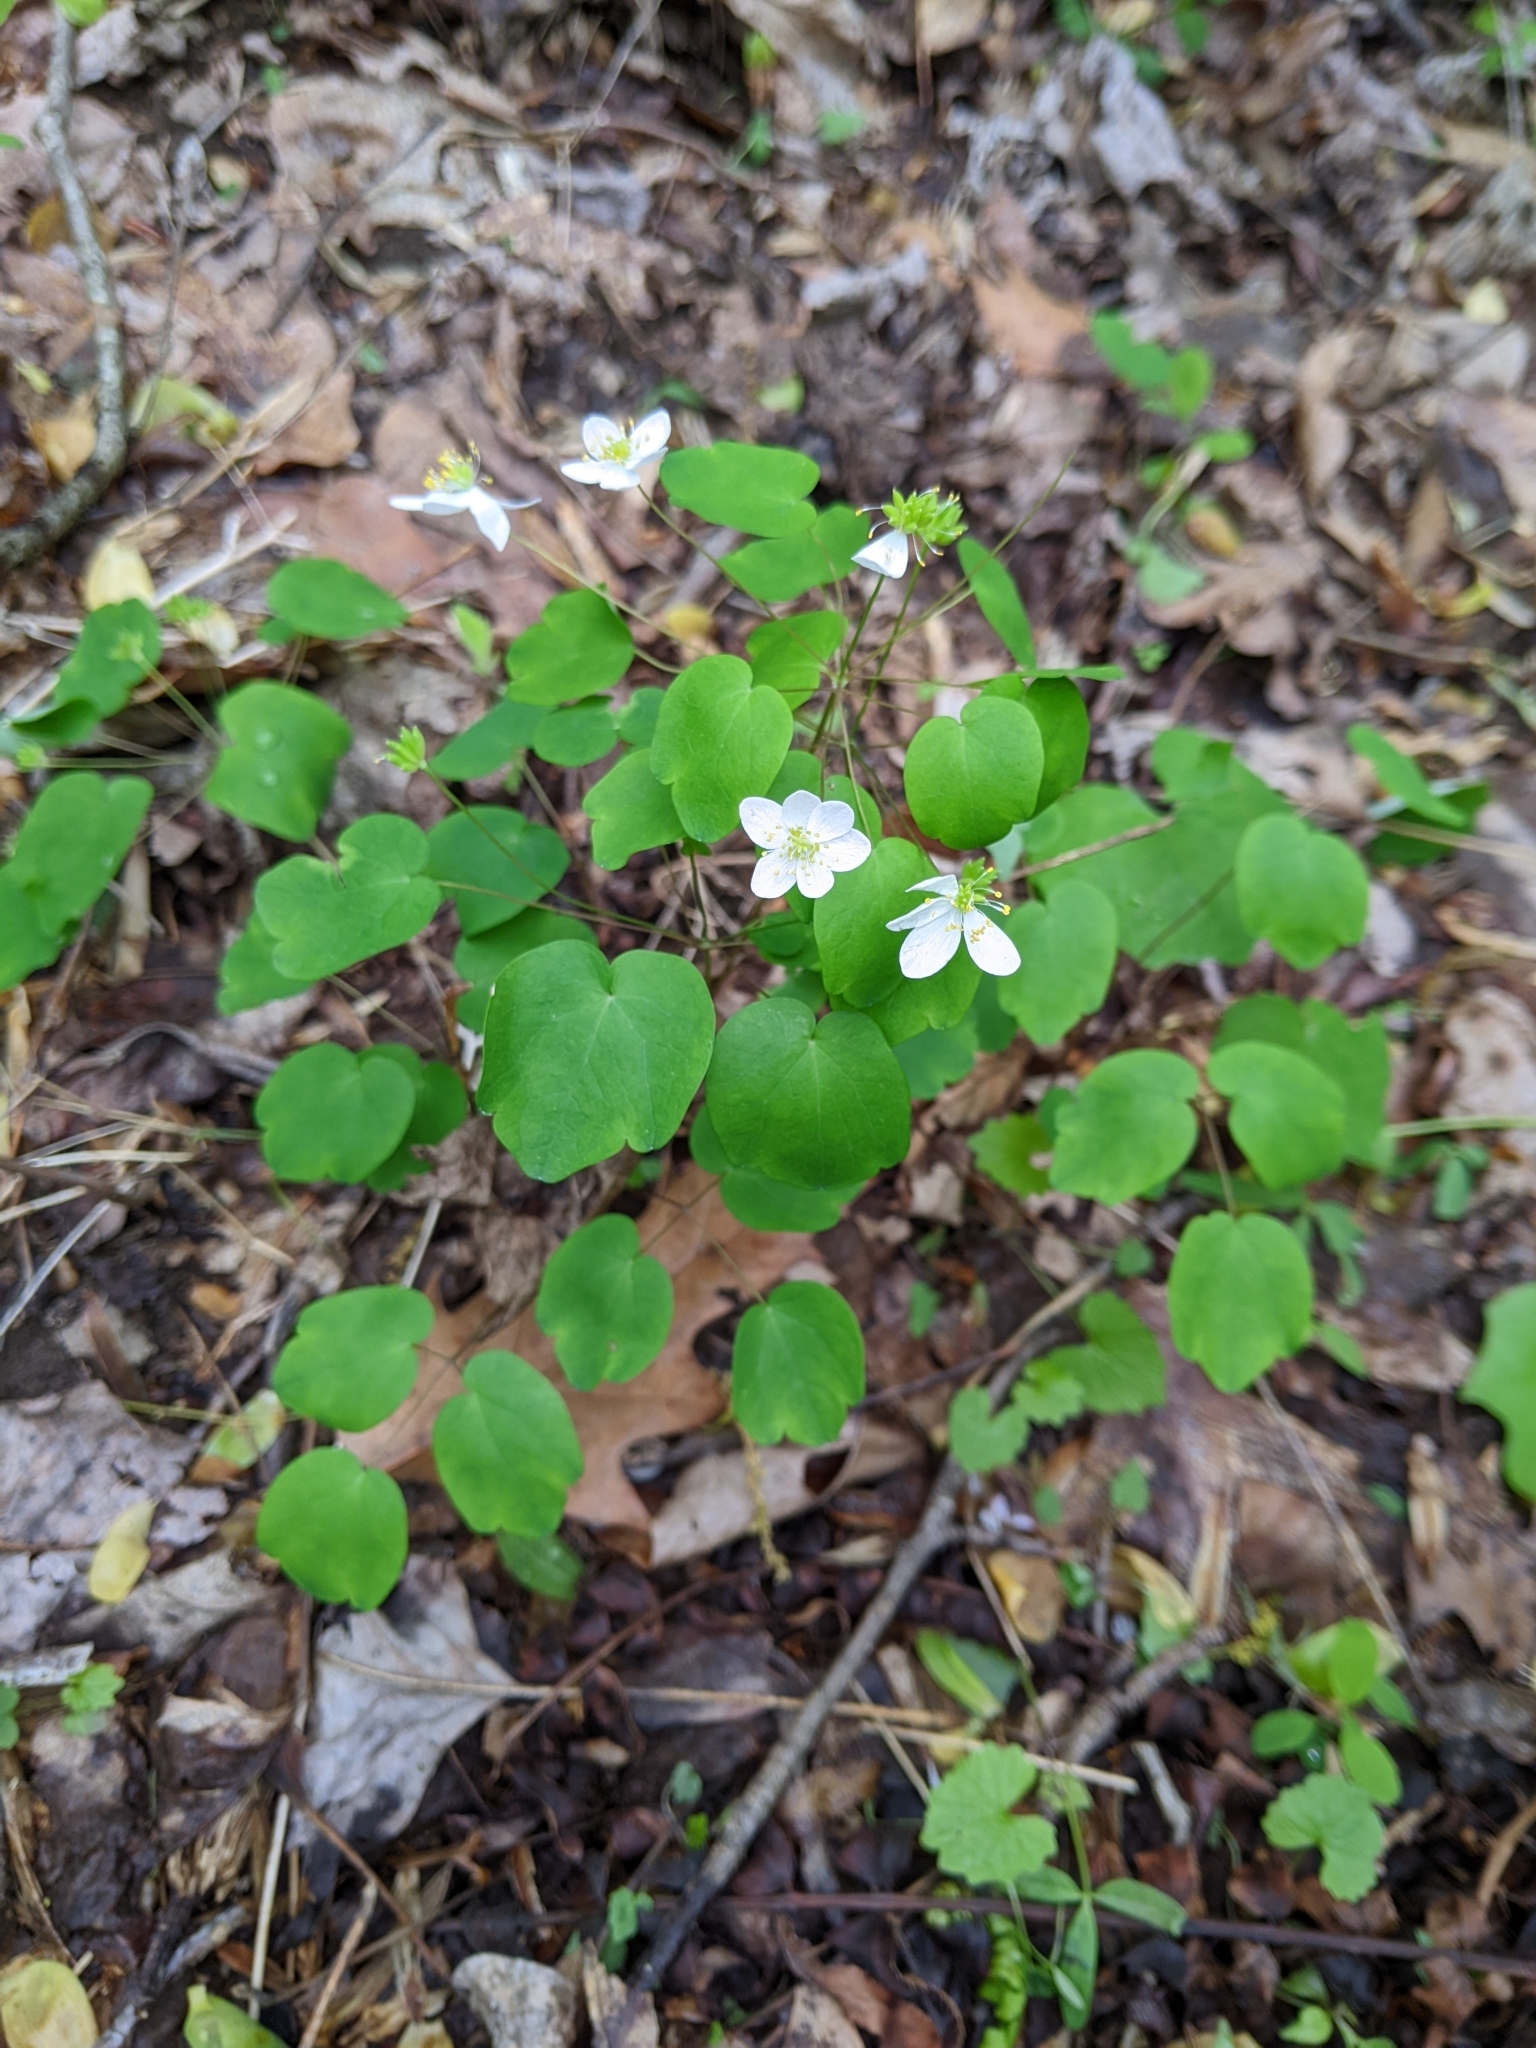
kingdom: Plantae
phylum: Tracheophyta
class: Magnoliopsida
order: Ranunculales
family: Ranunculaceae
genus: Thalictrum
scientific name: Thalictrum thalictroides
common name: Rue-anemone
